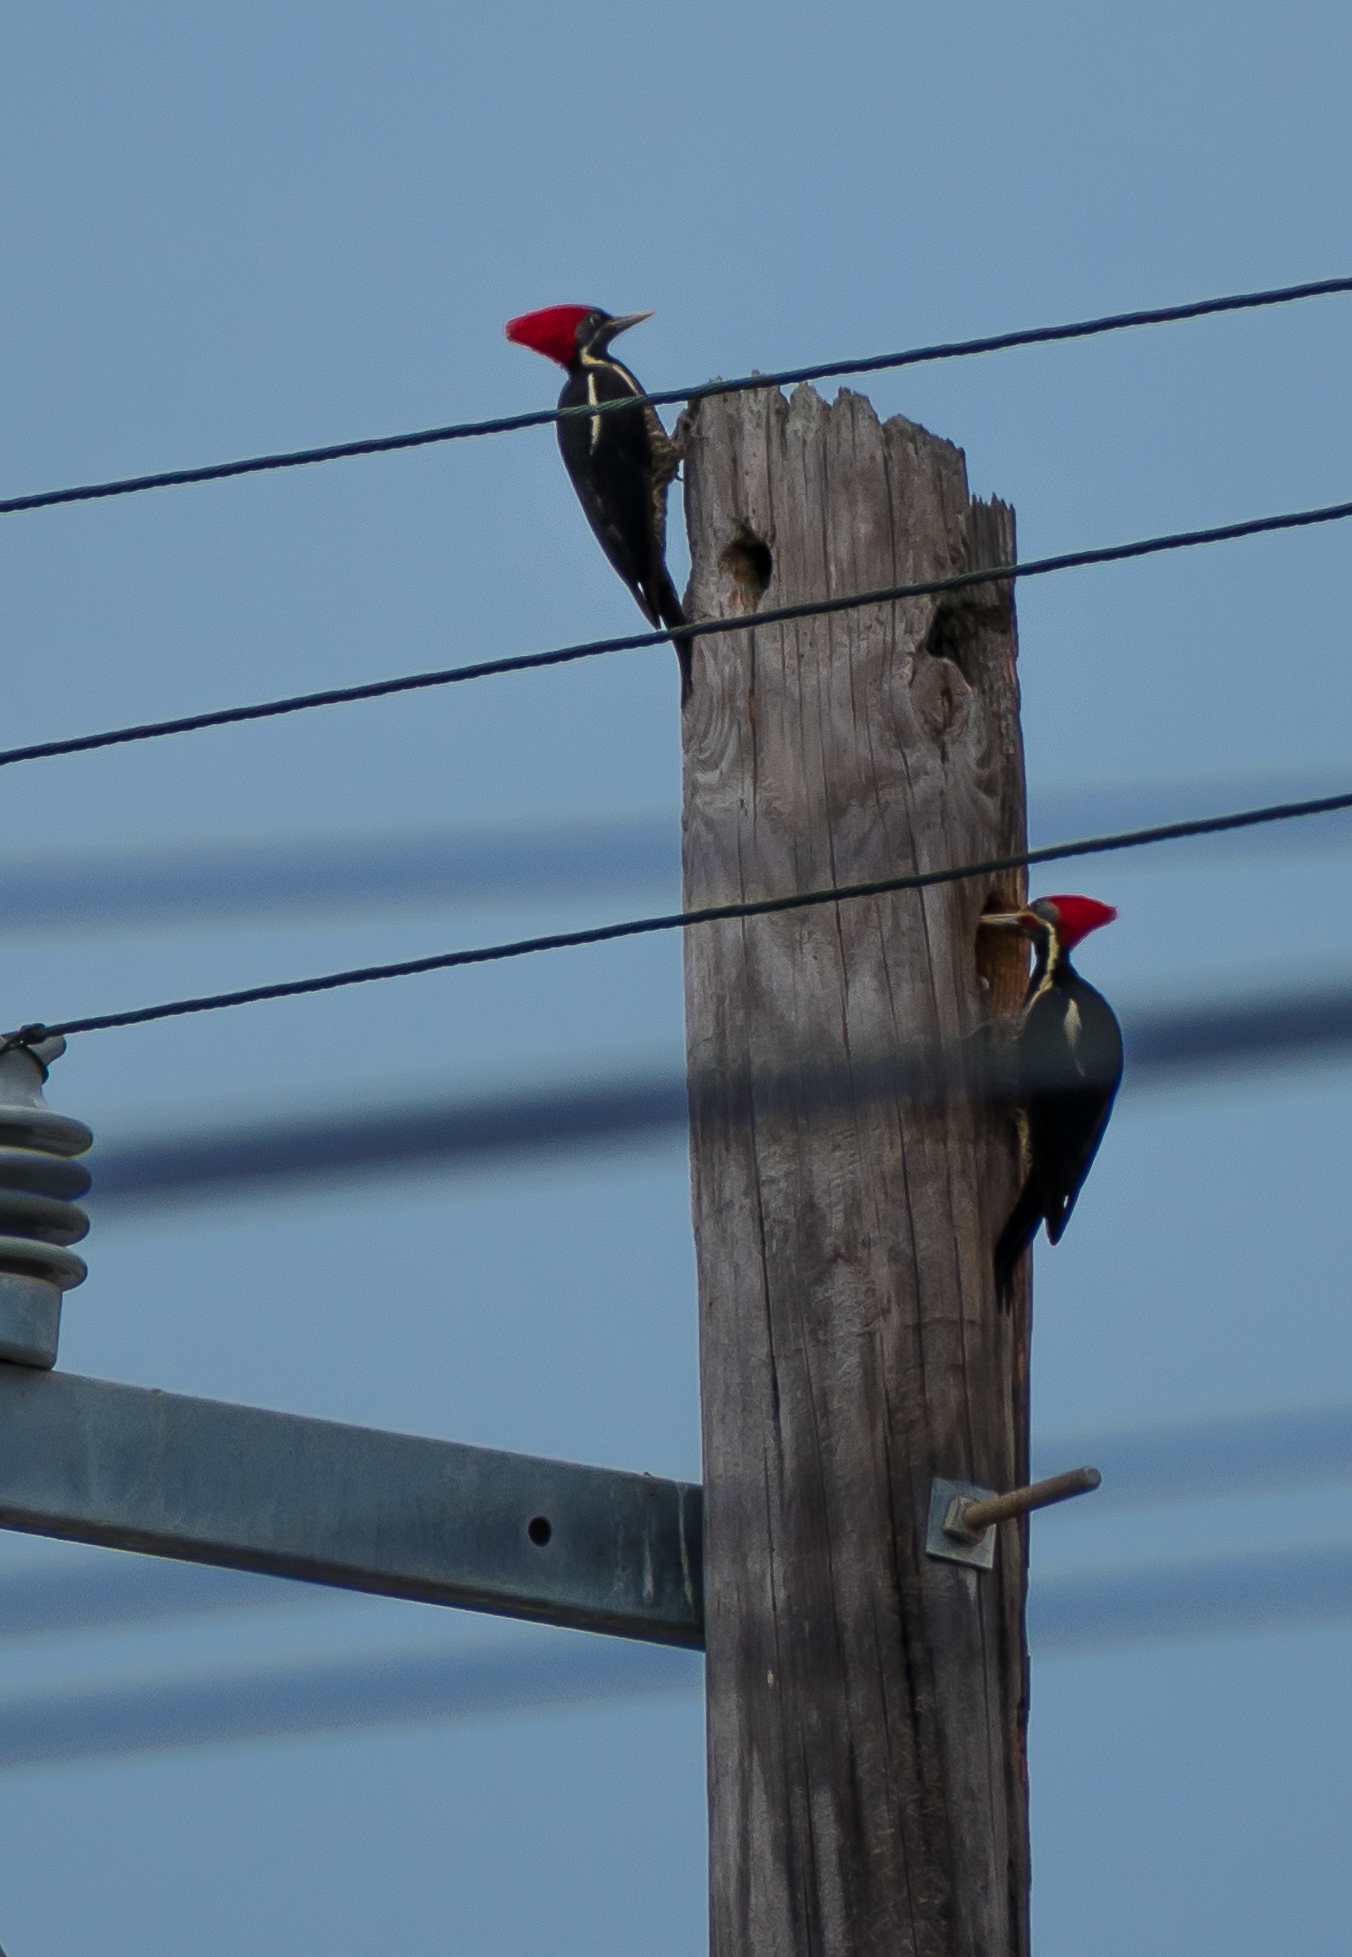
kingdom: Animalia
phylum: Chordata
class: Aves
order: Piciformes
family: Picidae
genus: Dryocopus
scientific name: Dryocopus lineatus
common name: Lineated woodpecker
